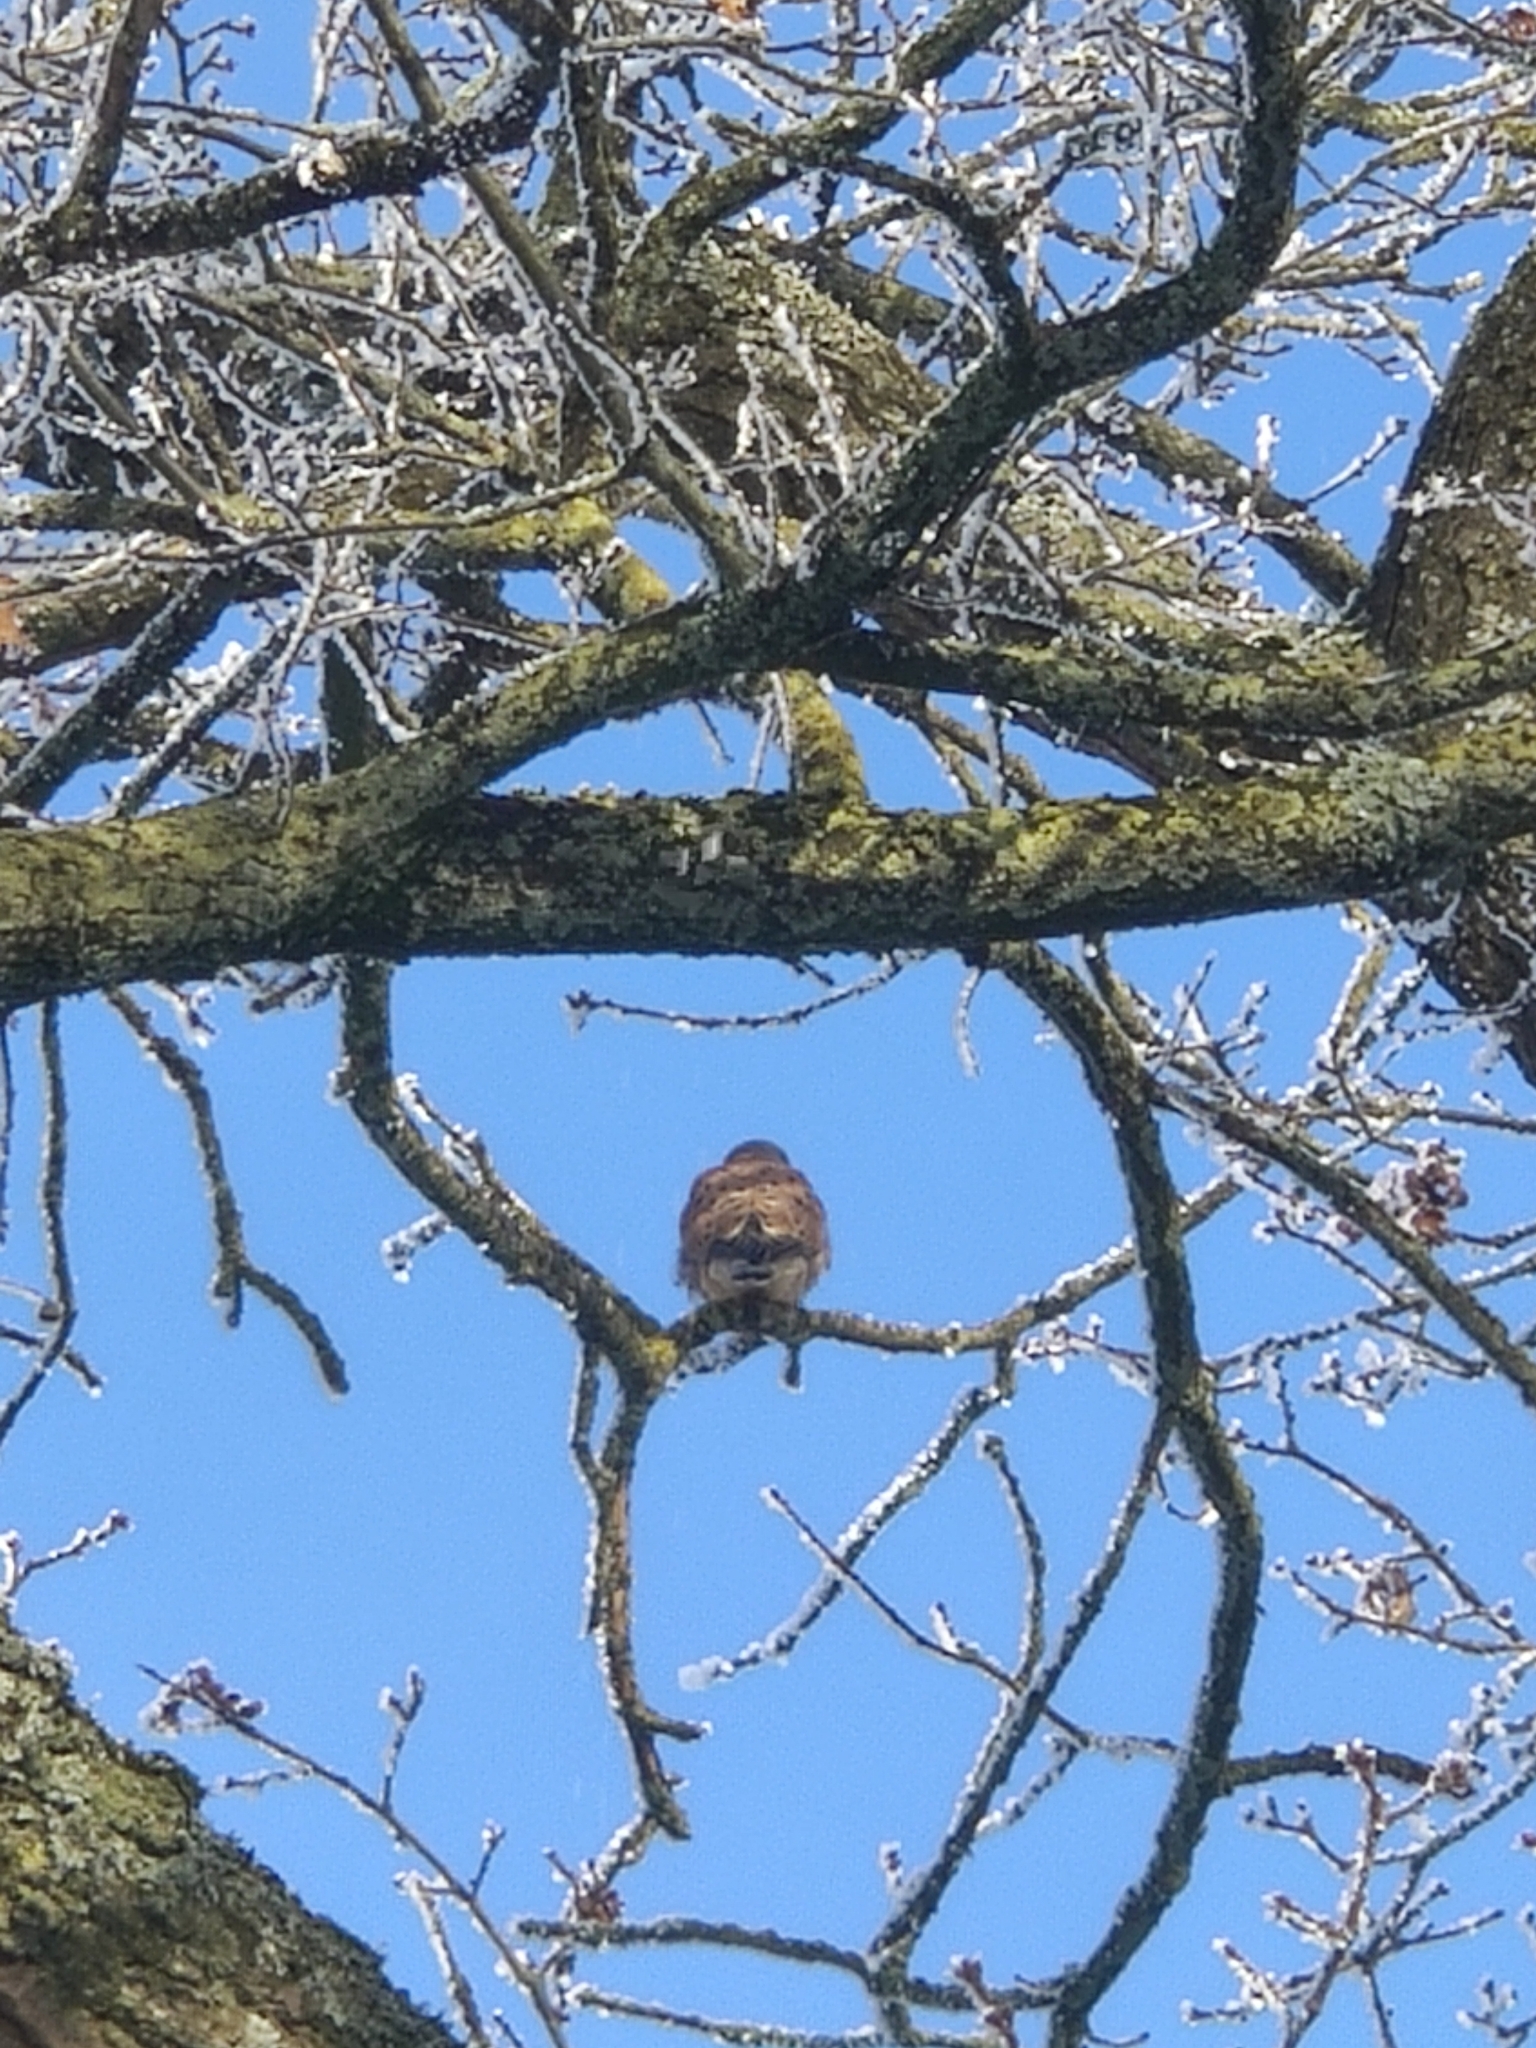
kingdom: Animalia
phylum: Chordata
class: Aves
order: Falconiformes
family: Falconidae
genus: Falco
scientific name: Falco tinnunculus
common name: Common kestrel
